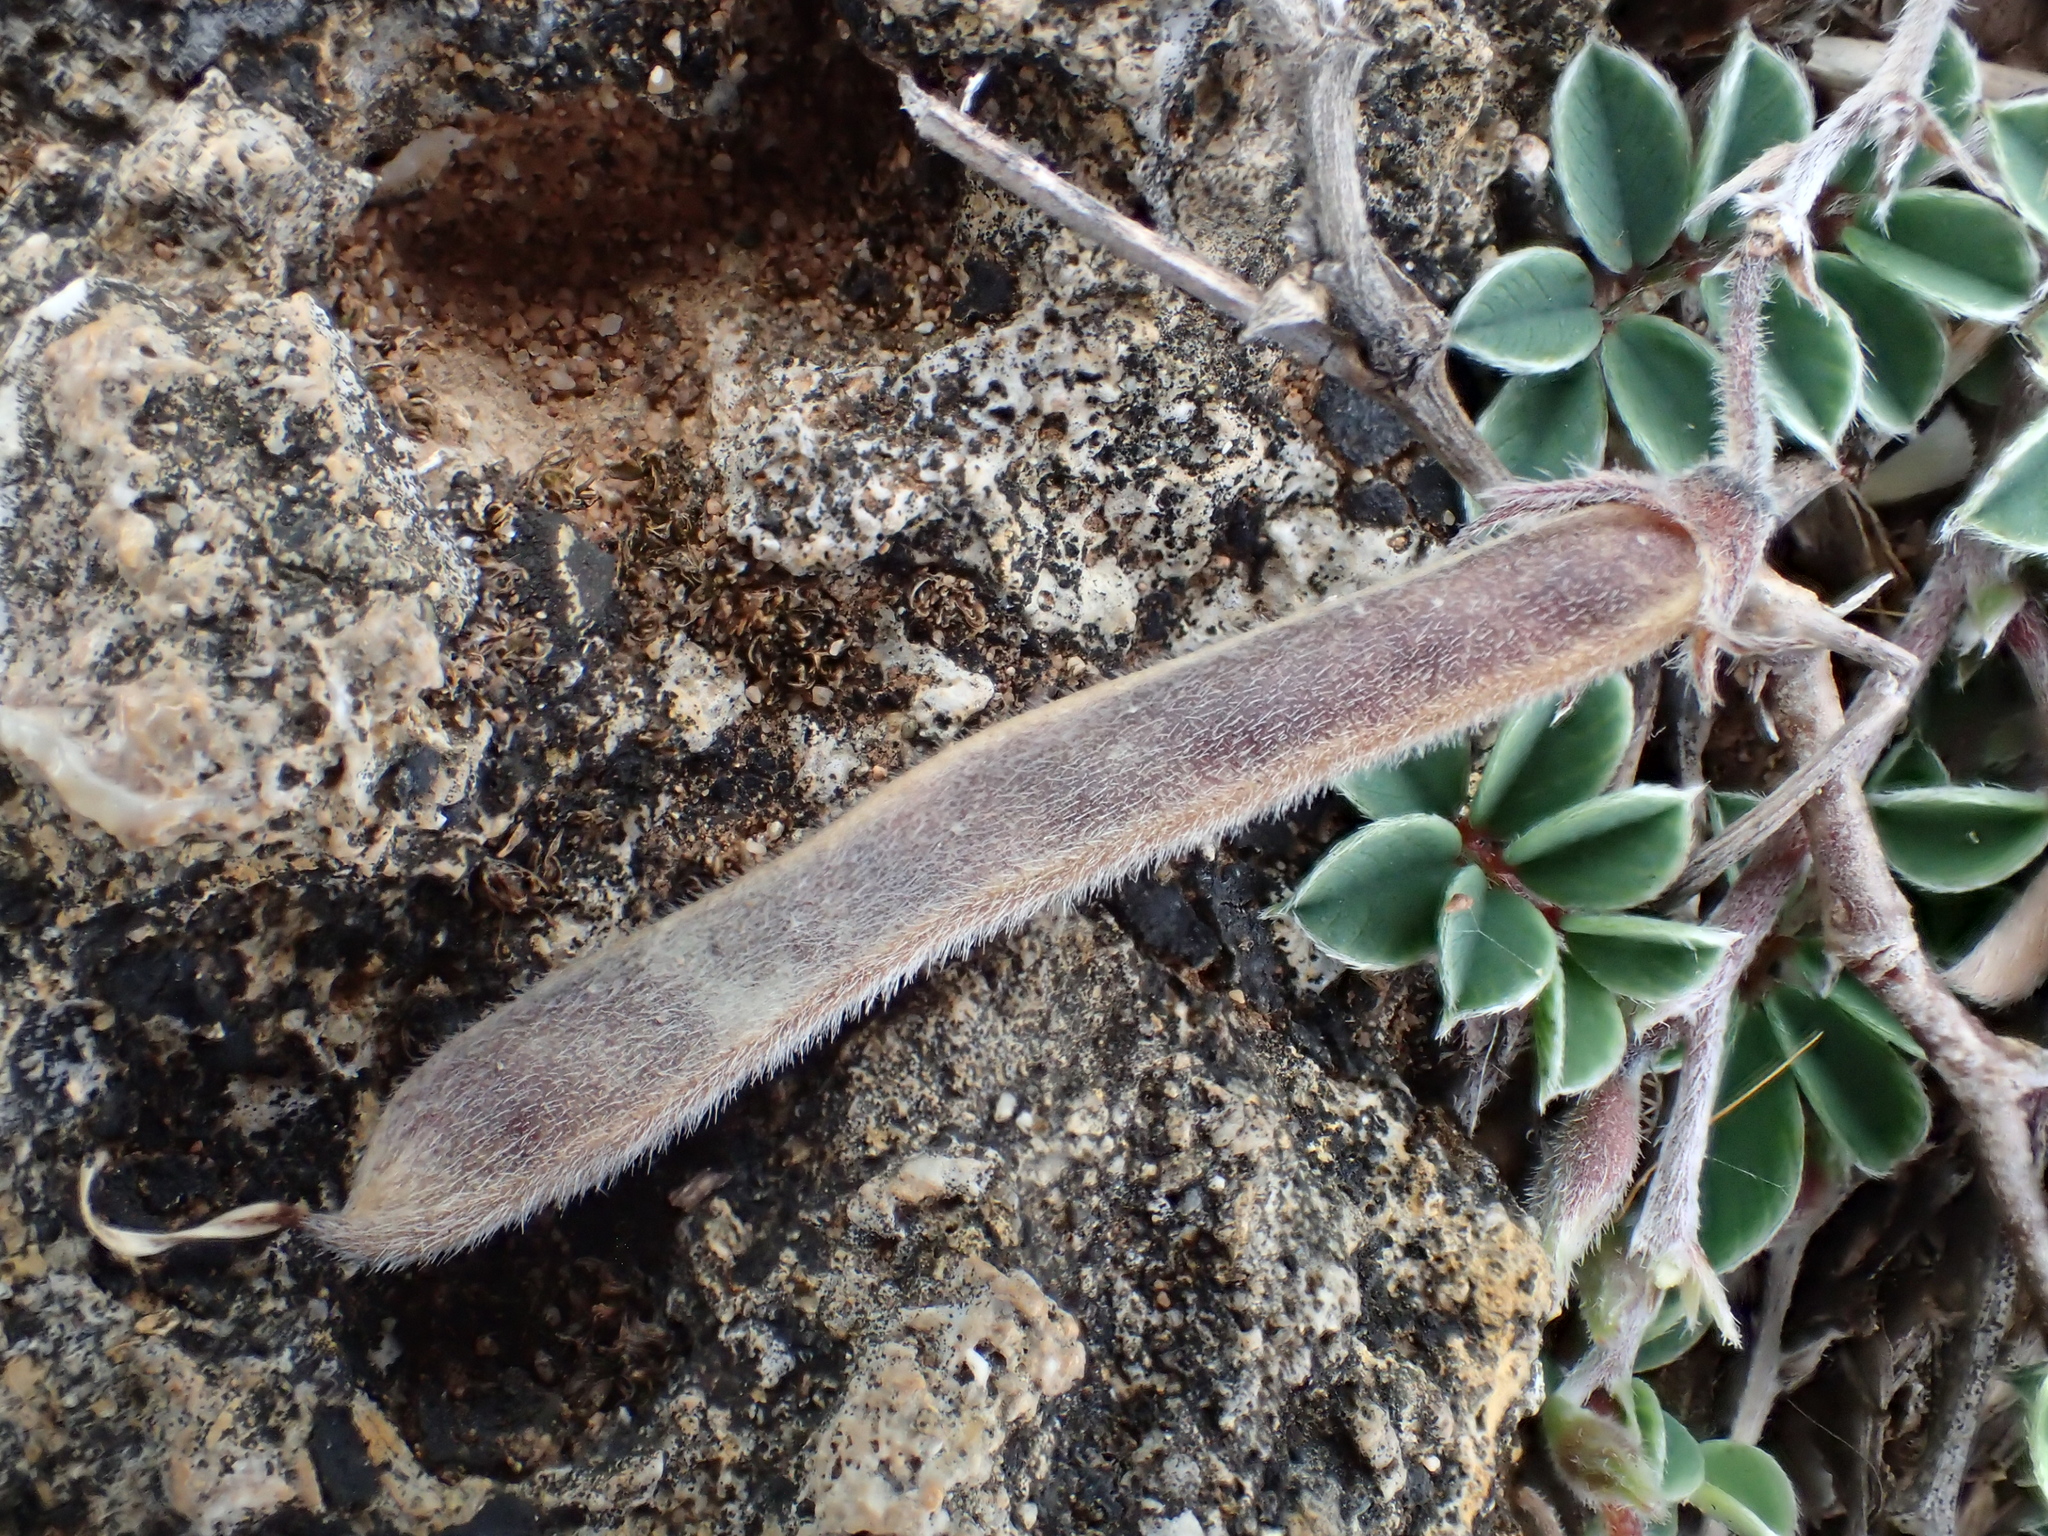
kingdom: Plantae
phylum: Tracheophyta
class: Magnoliopsida
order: Fabales
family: Fabaceae
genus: Tephrosia
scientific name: Tephrosia obovata
